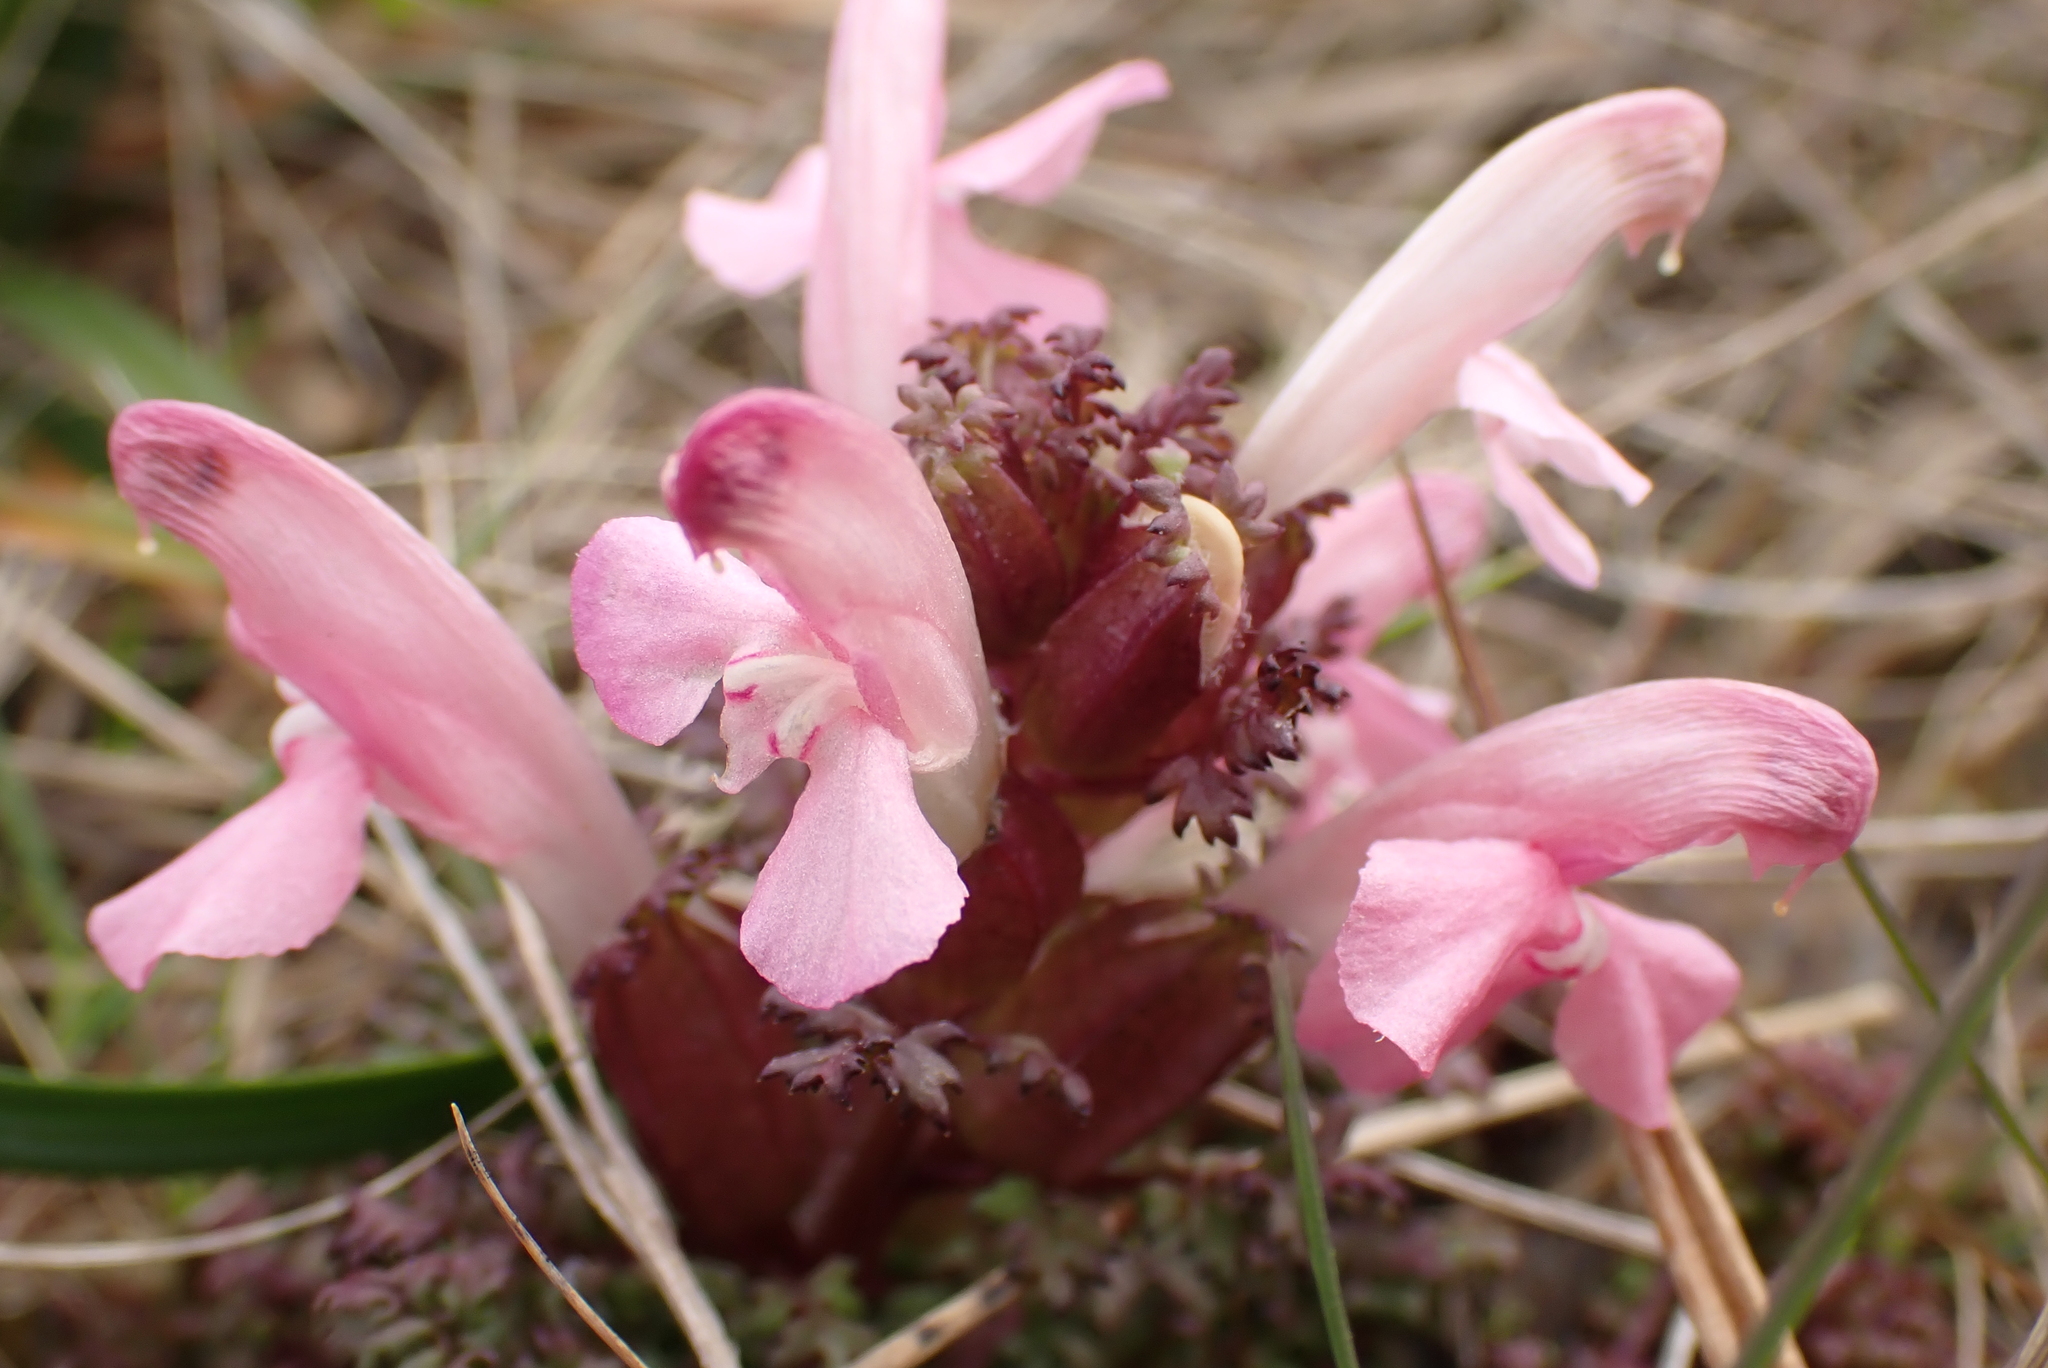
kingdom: Plantae
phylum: Tracheophyta
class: Magnoliopsida
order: Lamiales
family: Orobanchaceae
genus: Pedicularis
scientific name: Pedicularis sylvatica
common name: Lousewort
